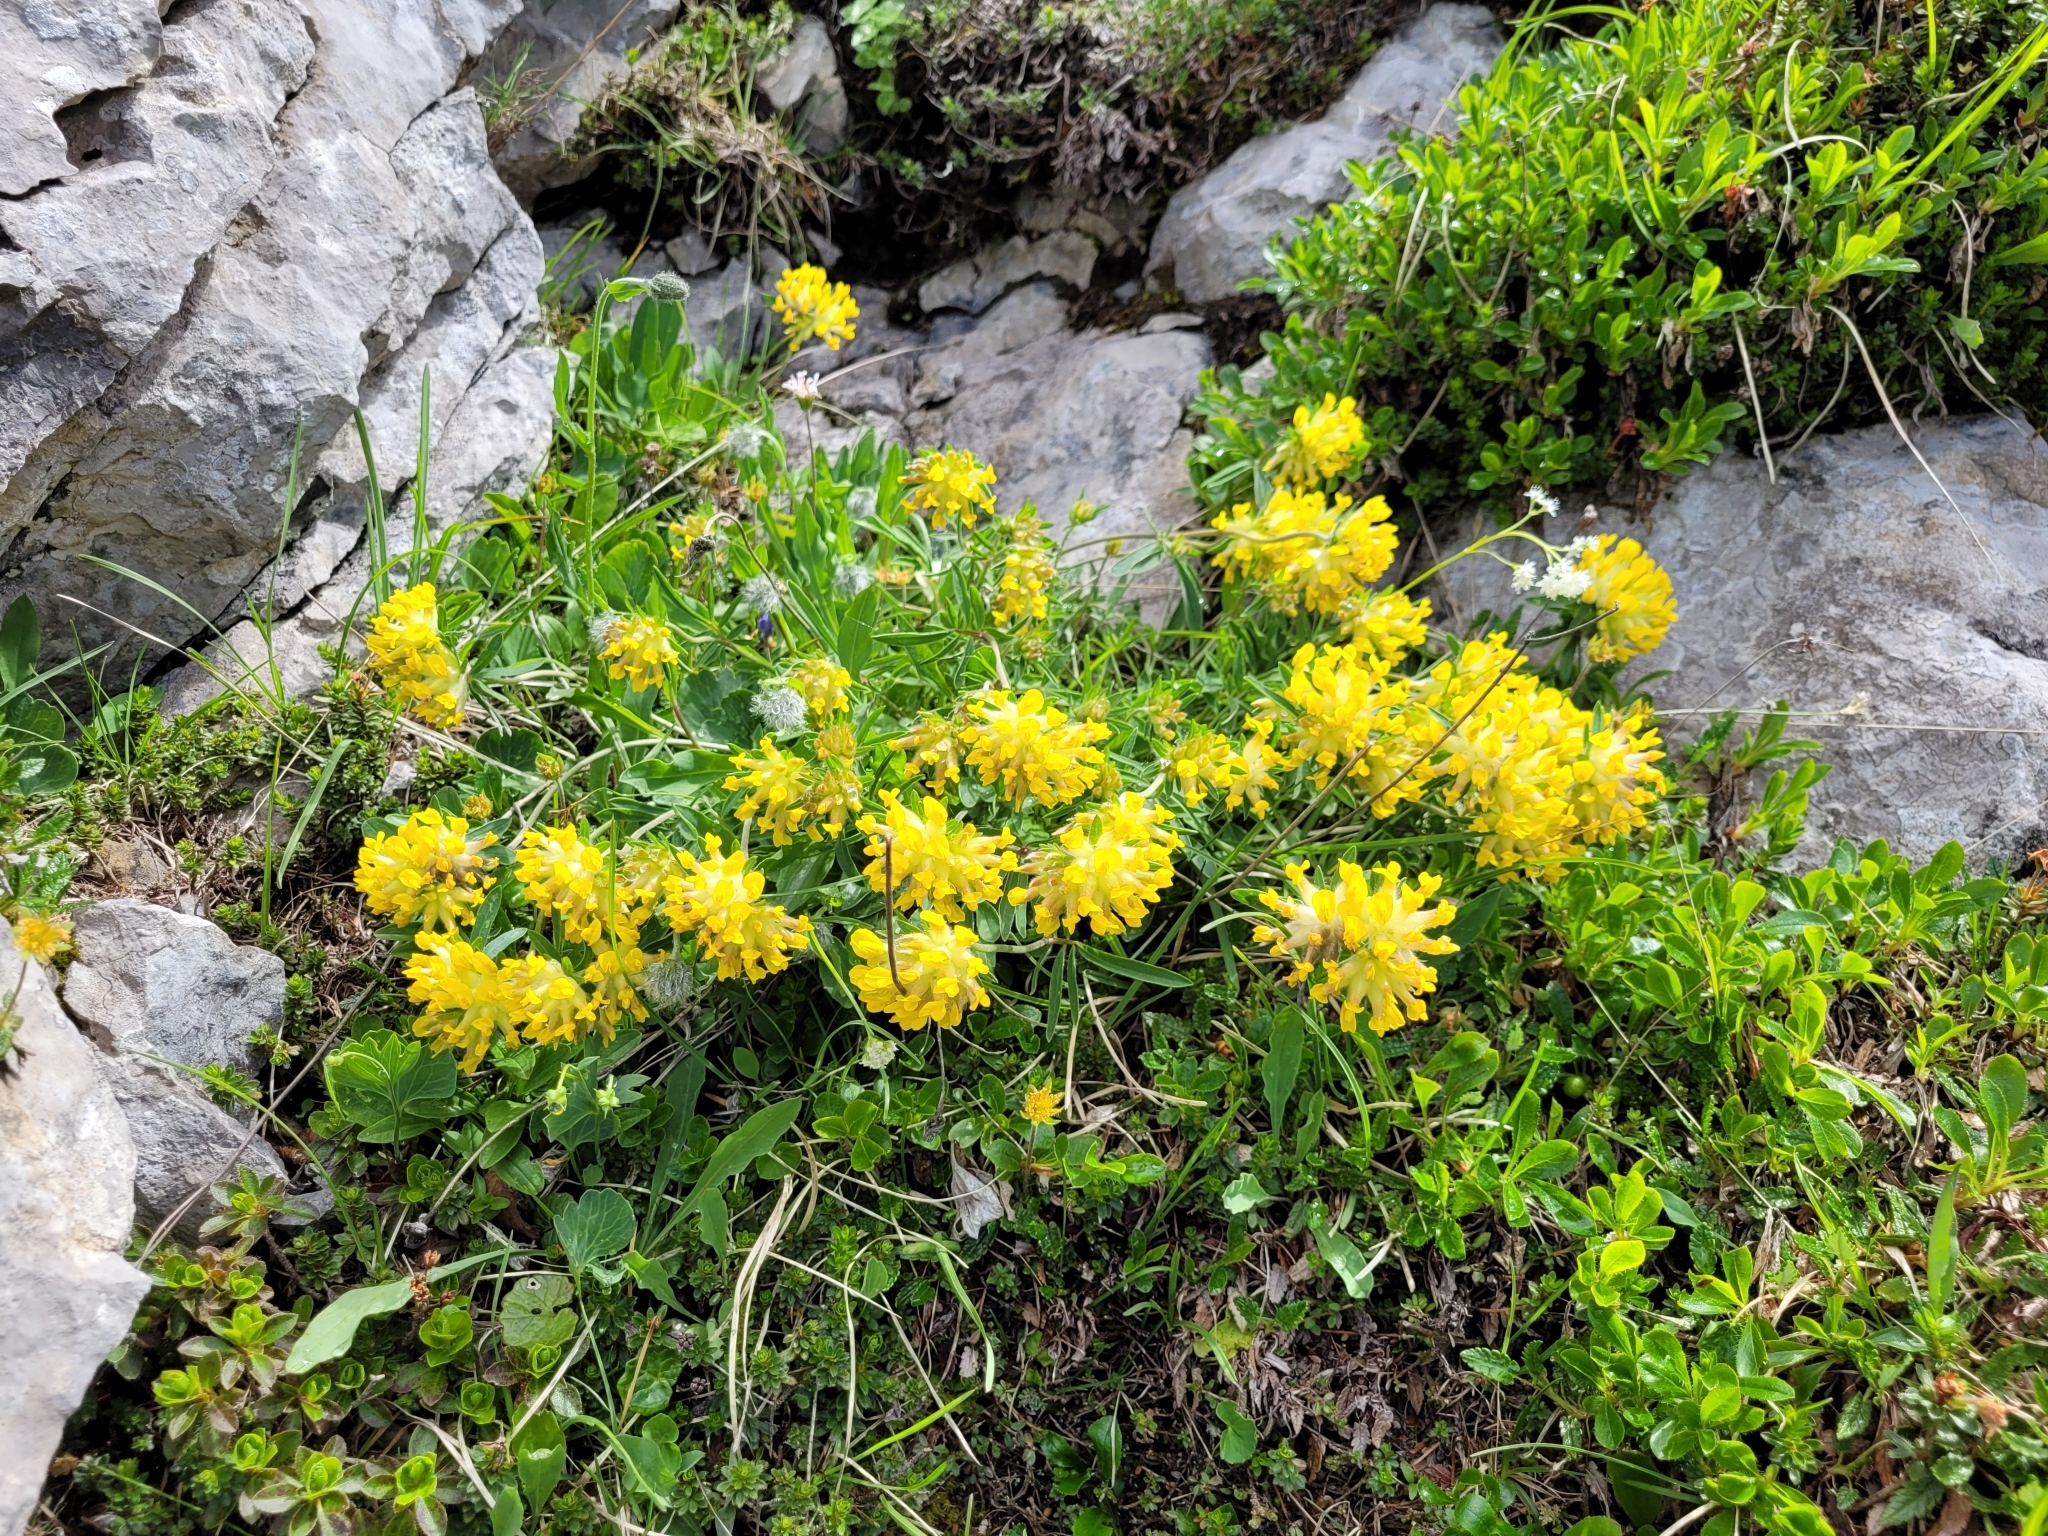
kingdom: Plantae
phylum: Tracheophyta
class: Magnoliopsida
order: Fabales
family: Fabaceae
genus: Anthyllis
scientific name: Anthyllis vulneraria
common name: Kidney vetch
